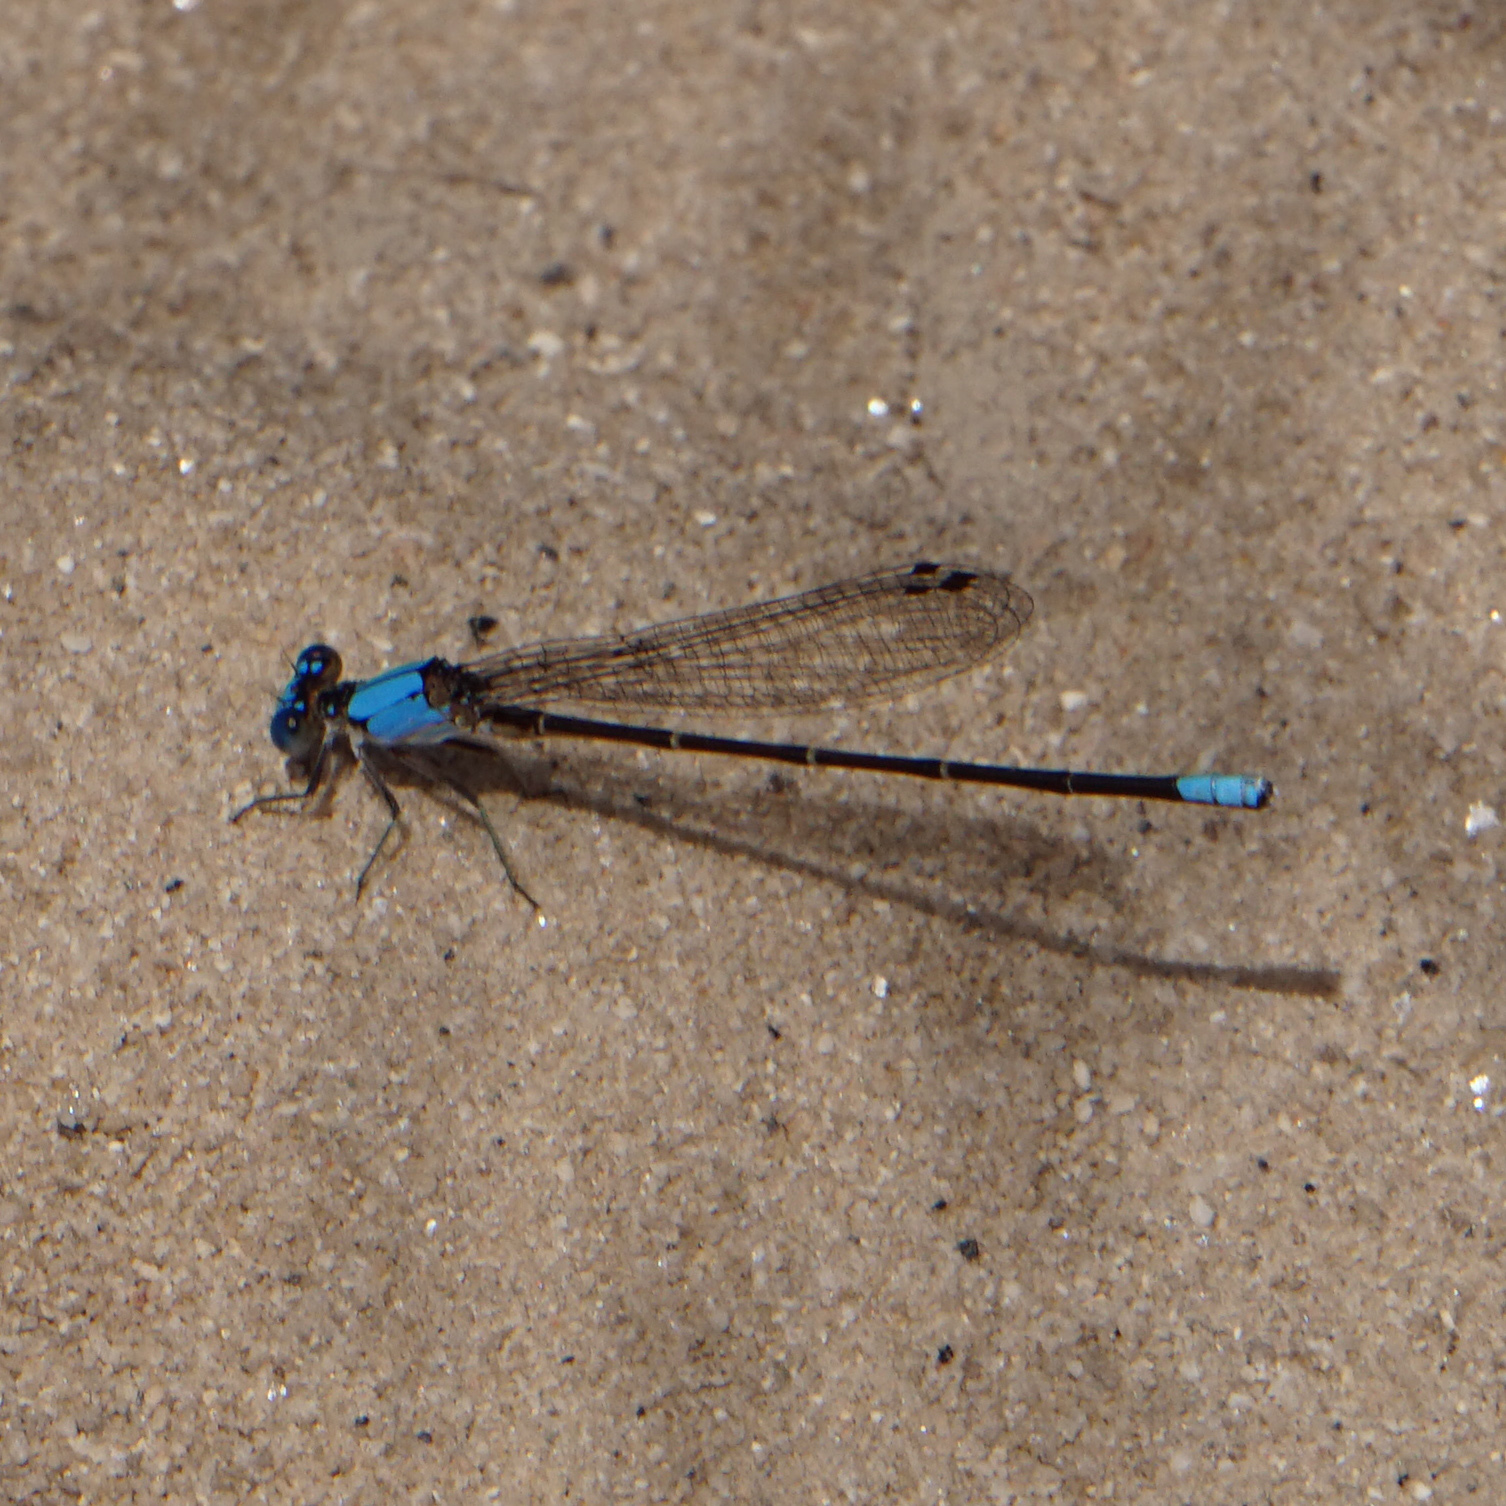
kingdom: Animalia
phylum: Arthropoda
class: Insecta
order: Odonata
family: Coenagrionidae
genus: Argia
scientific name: Argia apicalis
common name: Blue-fronted dancer
